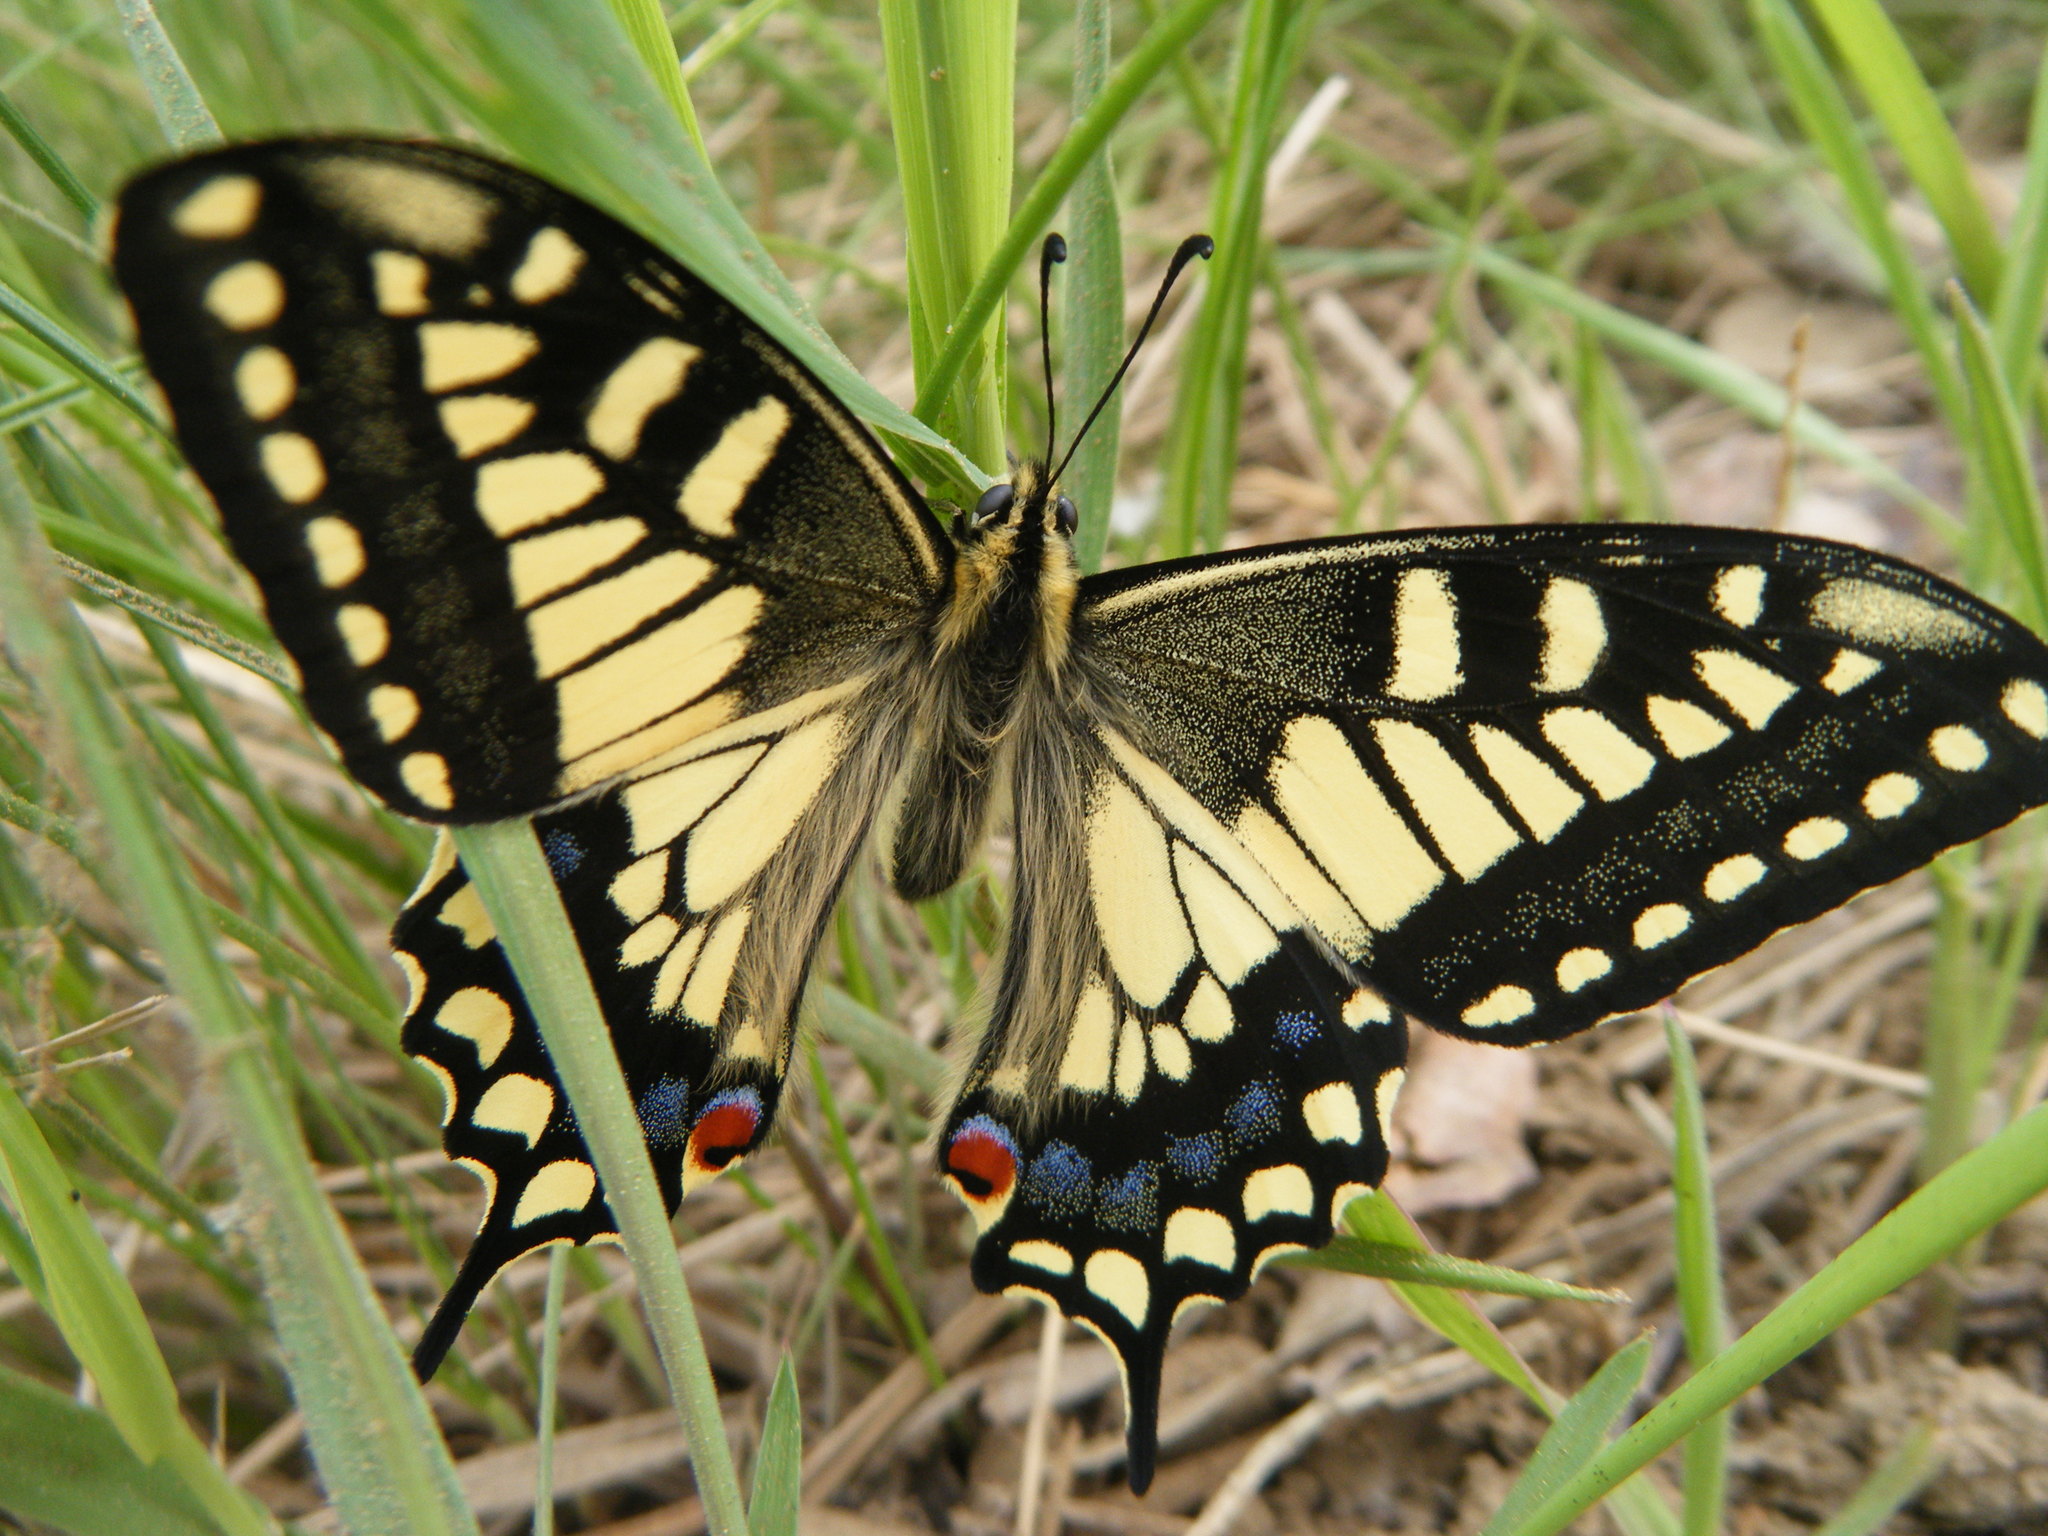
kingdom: Animalia
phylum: Arthropoda
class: Insecta
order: Lepidoptera
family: Papilionidae
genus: Papilio
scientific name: Papilio machaon
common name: Swallowtail
